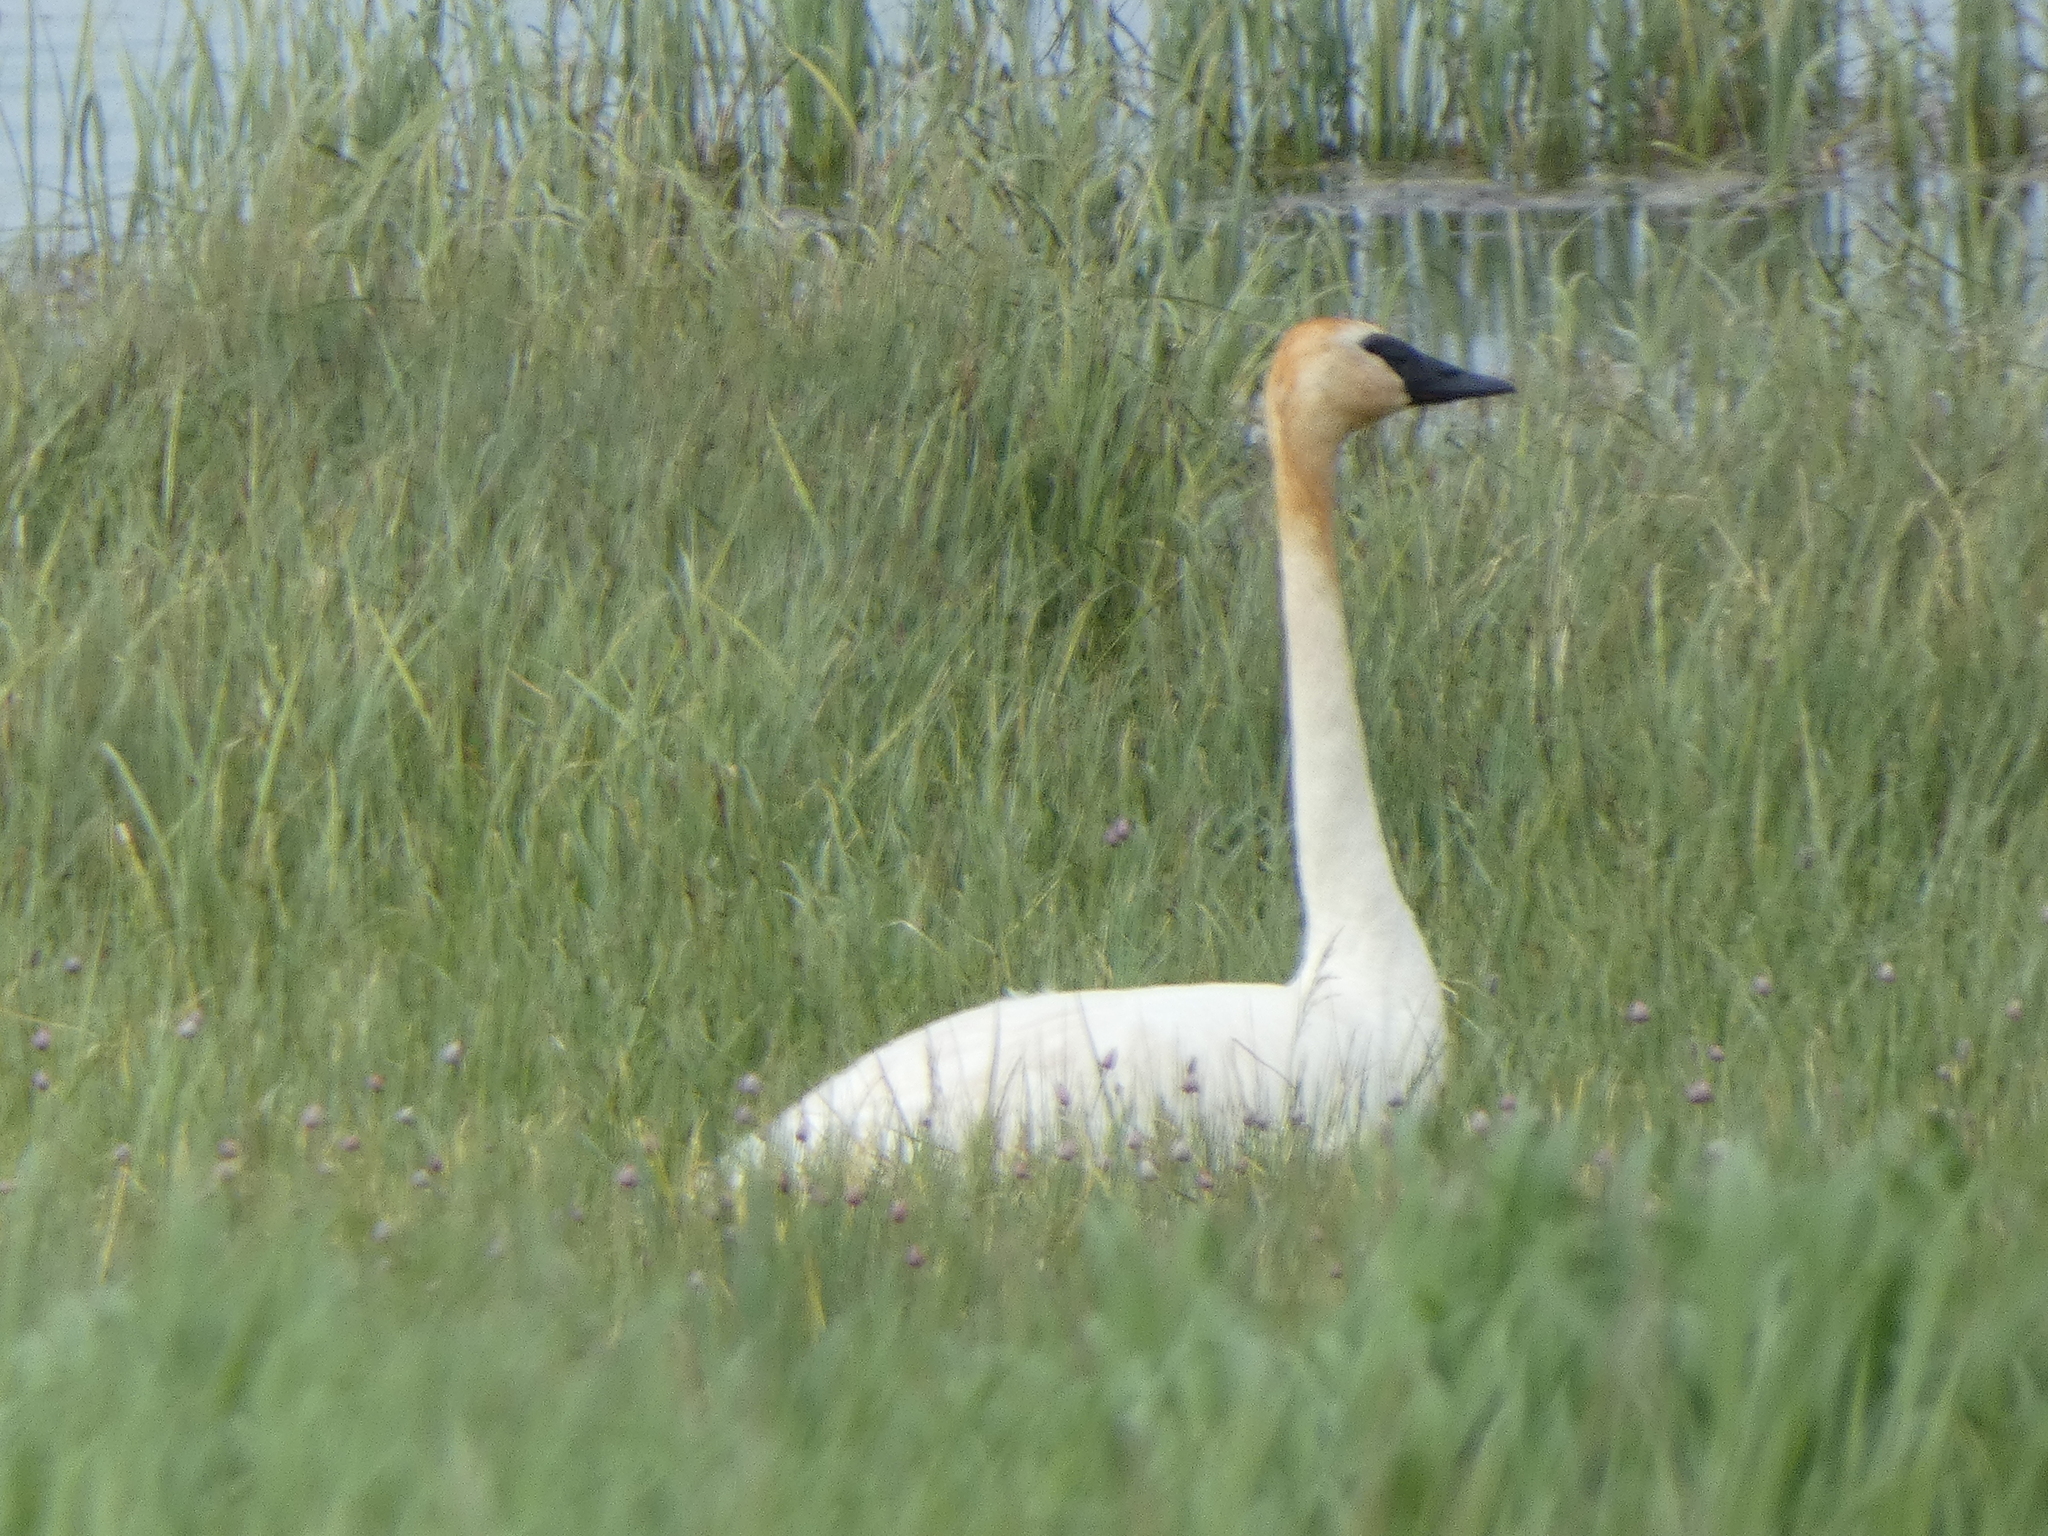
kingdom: Animalia
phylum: Chordata
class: Aves
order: Anseriformes
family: Anatidae
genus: Cygnus
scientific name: Cygnus buccinator
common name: Trumpeter swan
